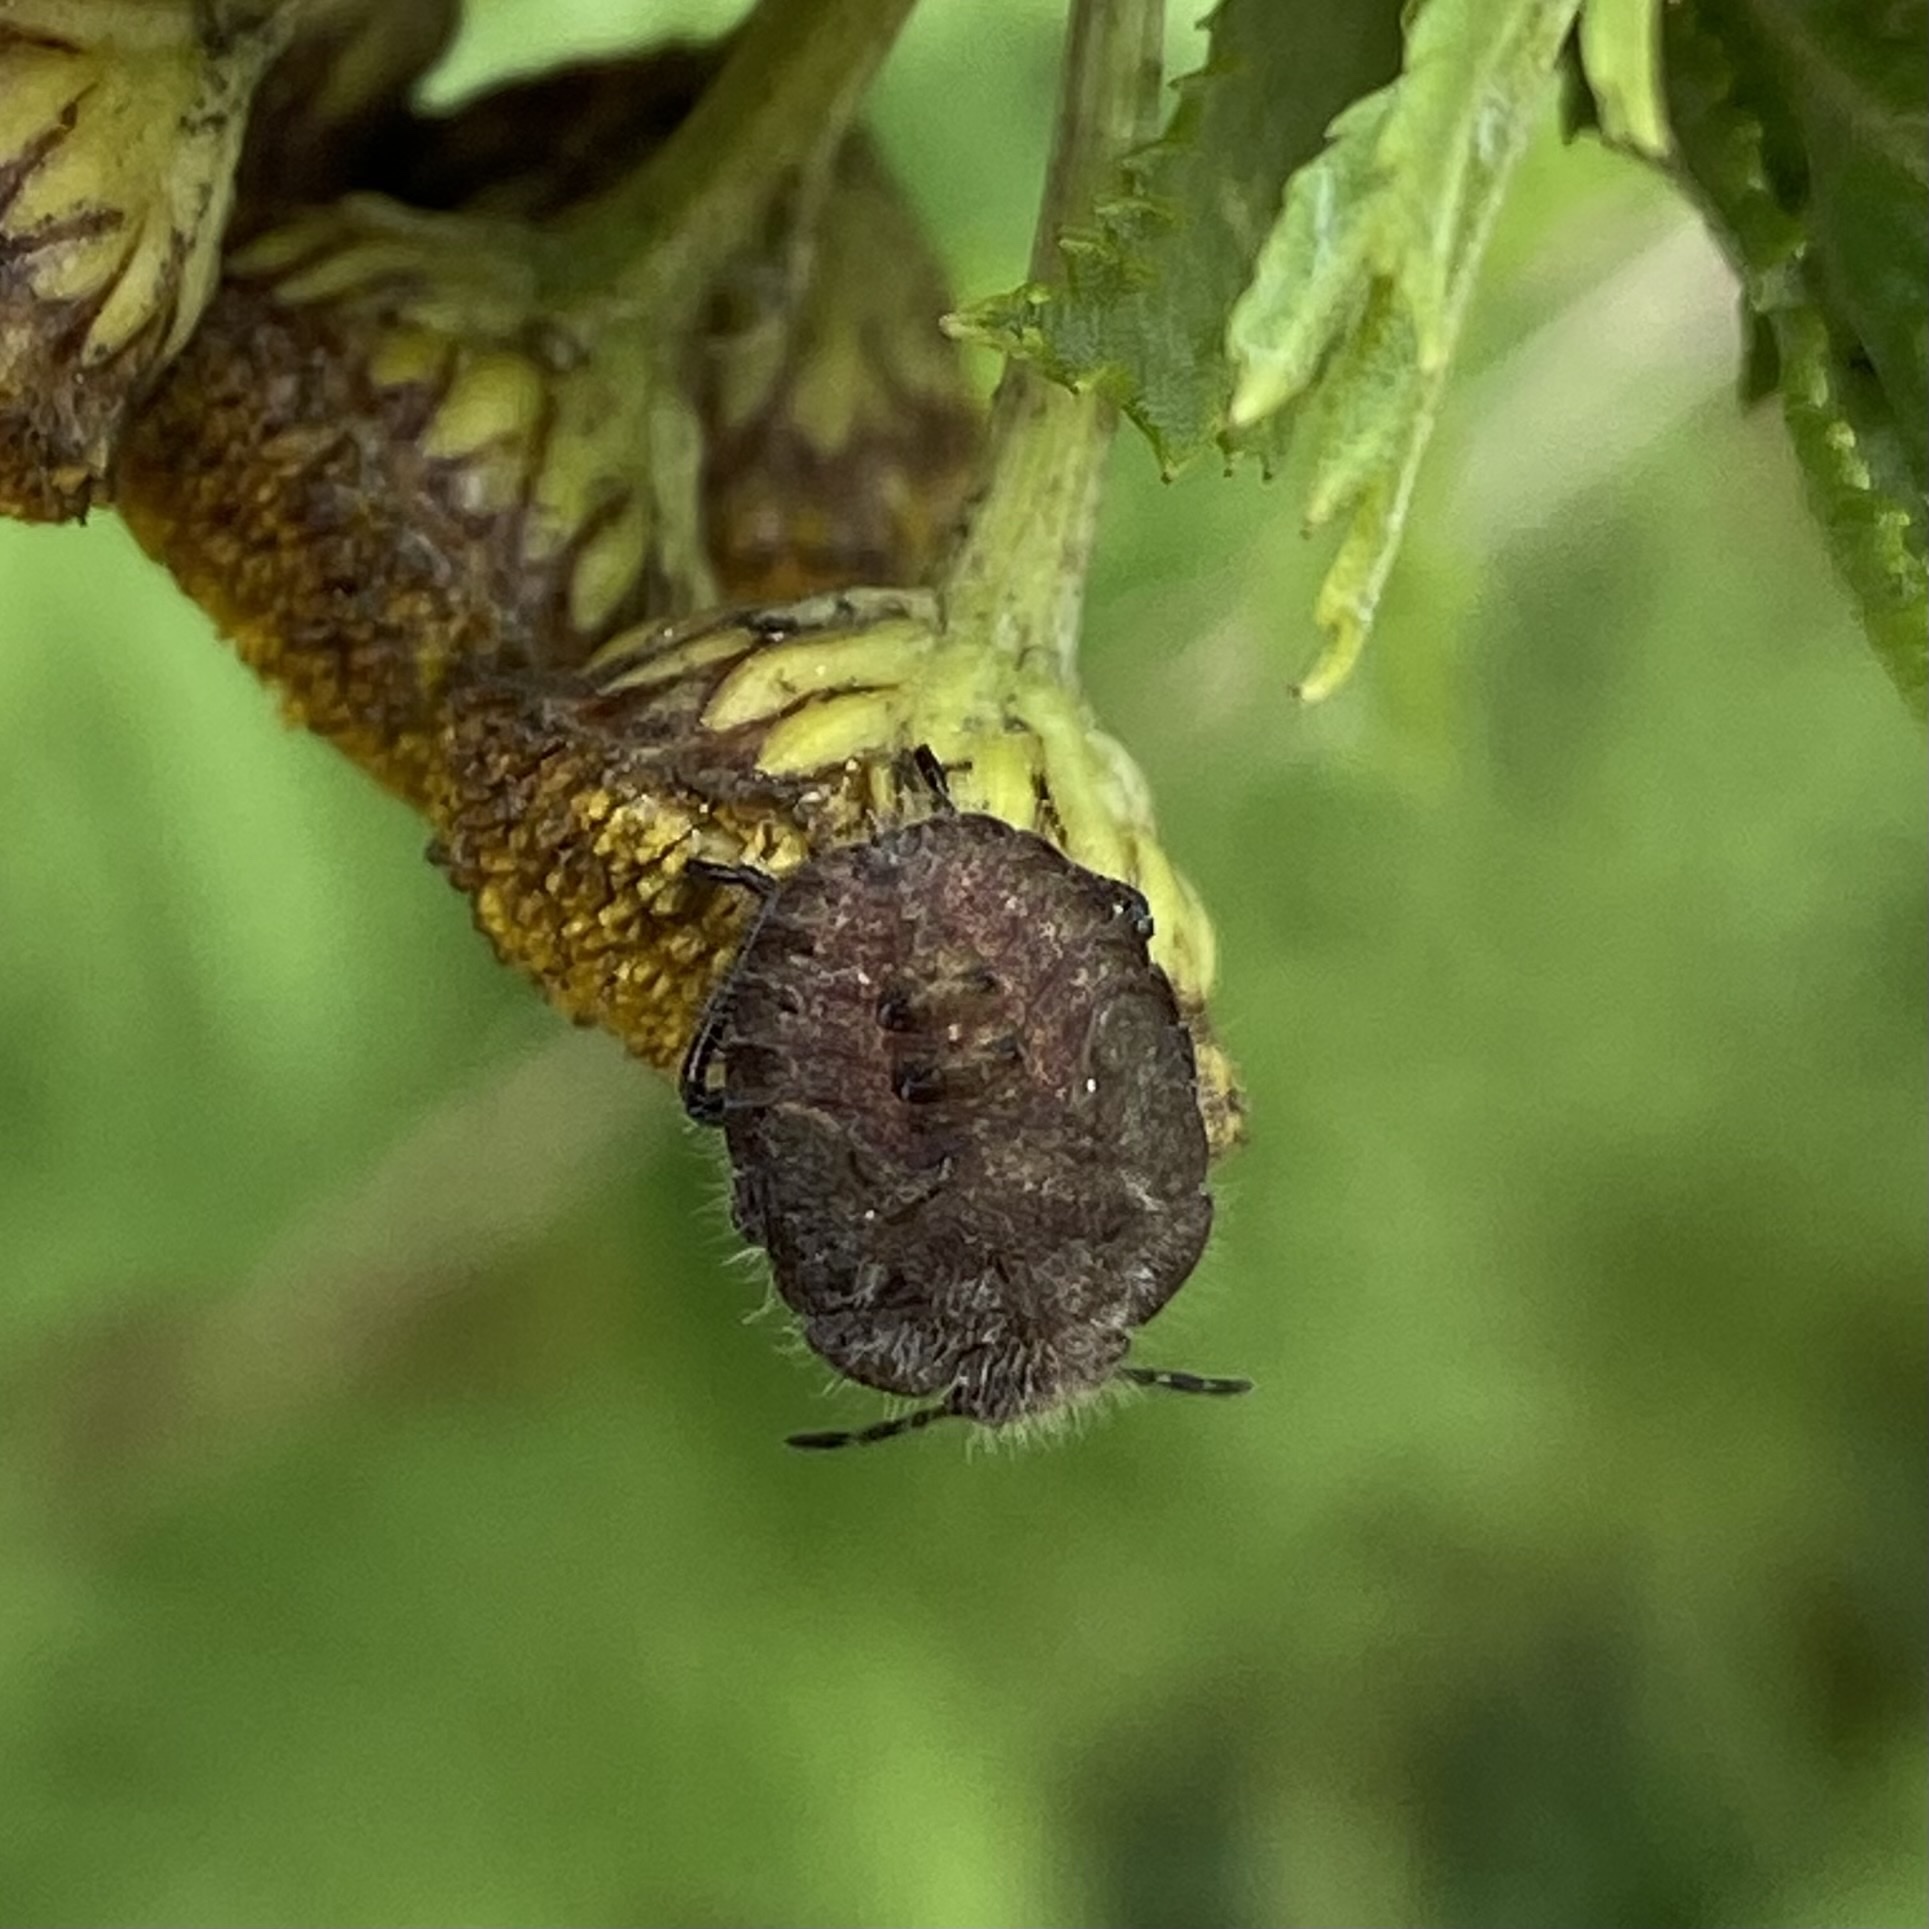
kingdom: Animalia
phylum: Arthropoda
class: Insecta
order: Hemiptera
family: Pentatomidae
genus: Dolycoris
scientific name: Dolycoris baccarum
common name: Sloe bug
